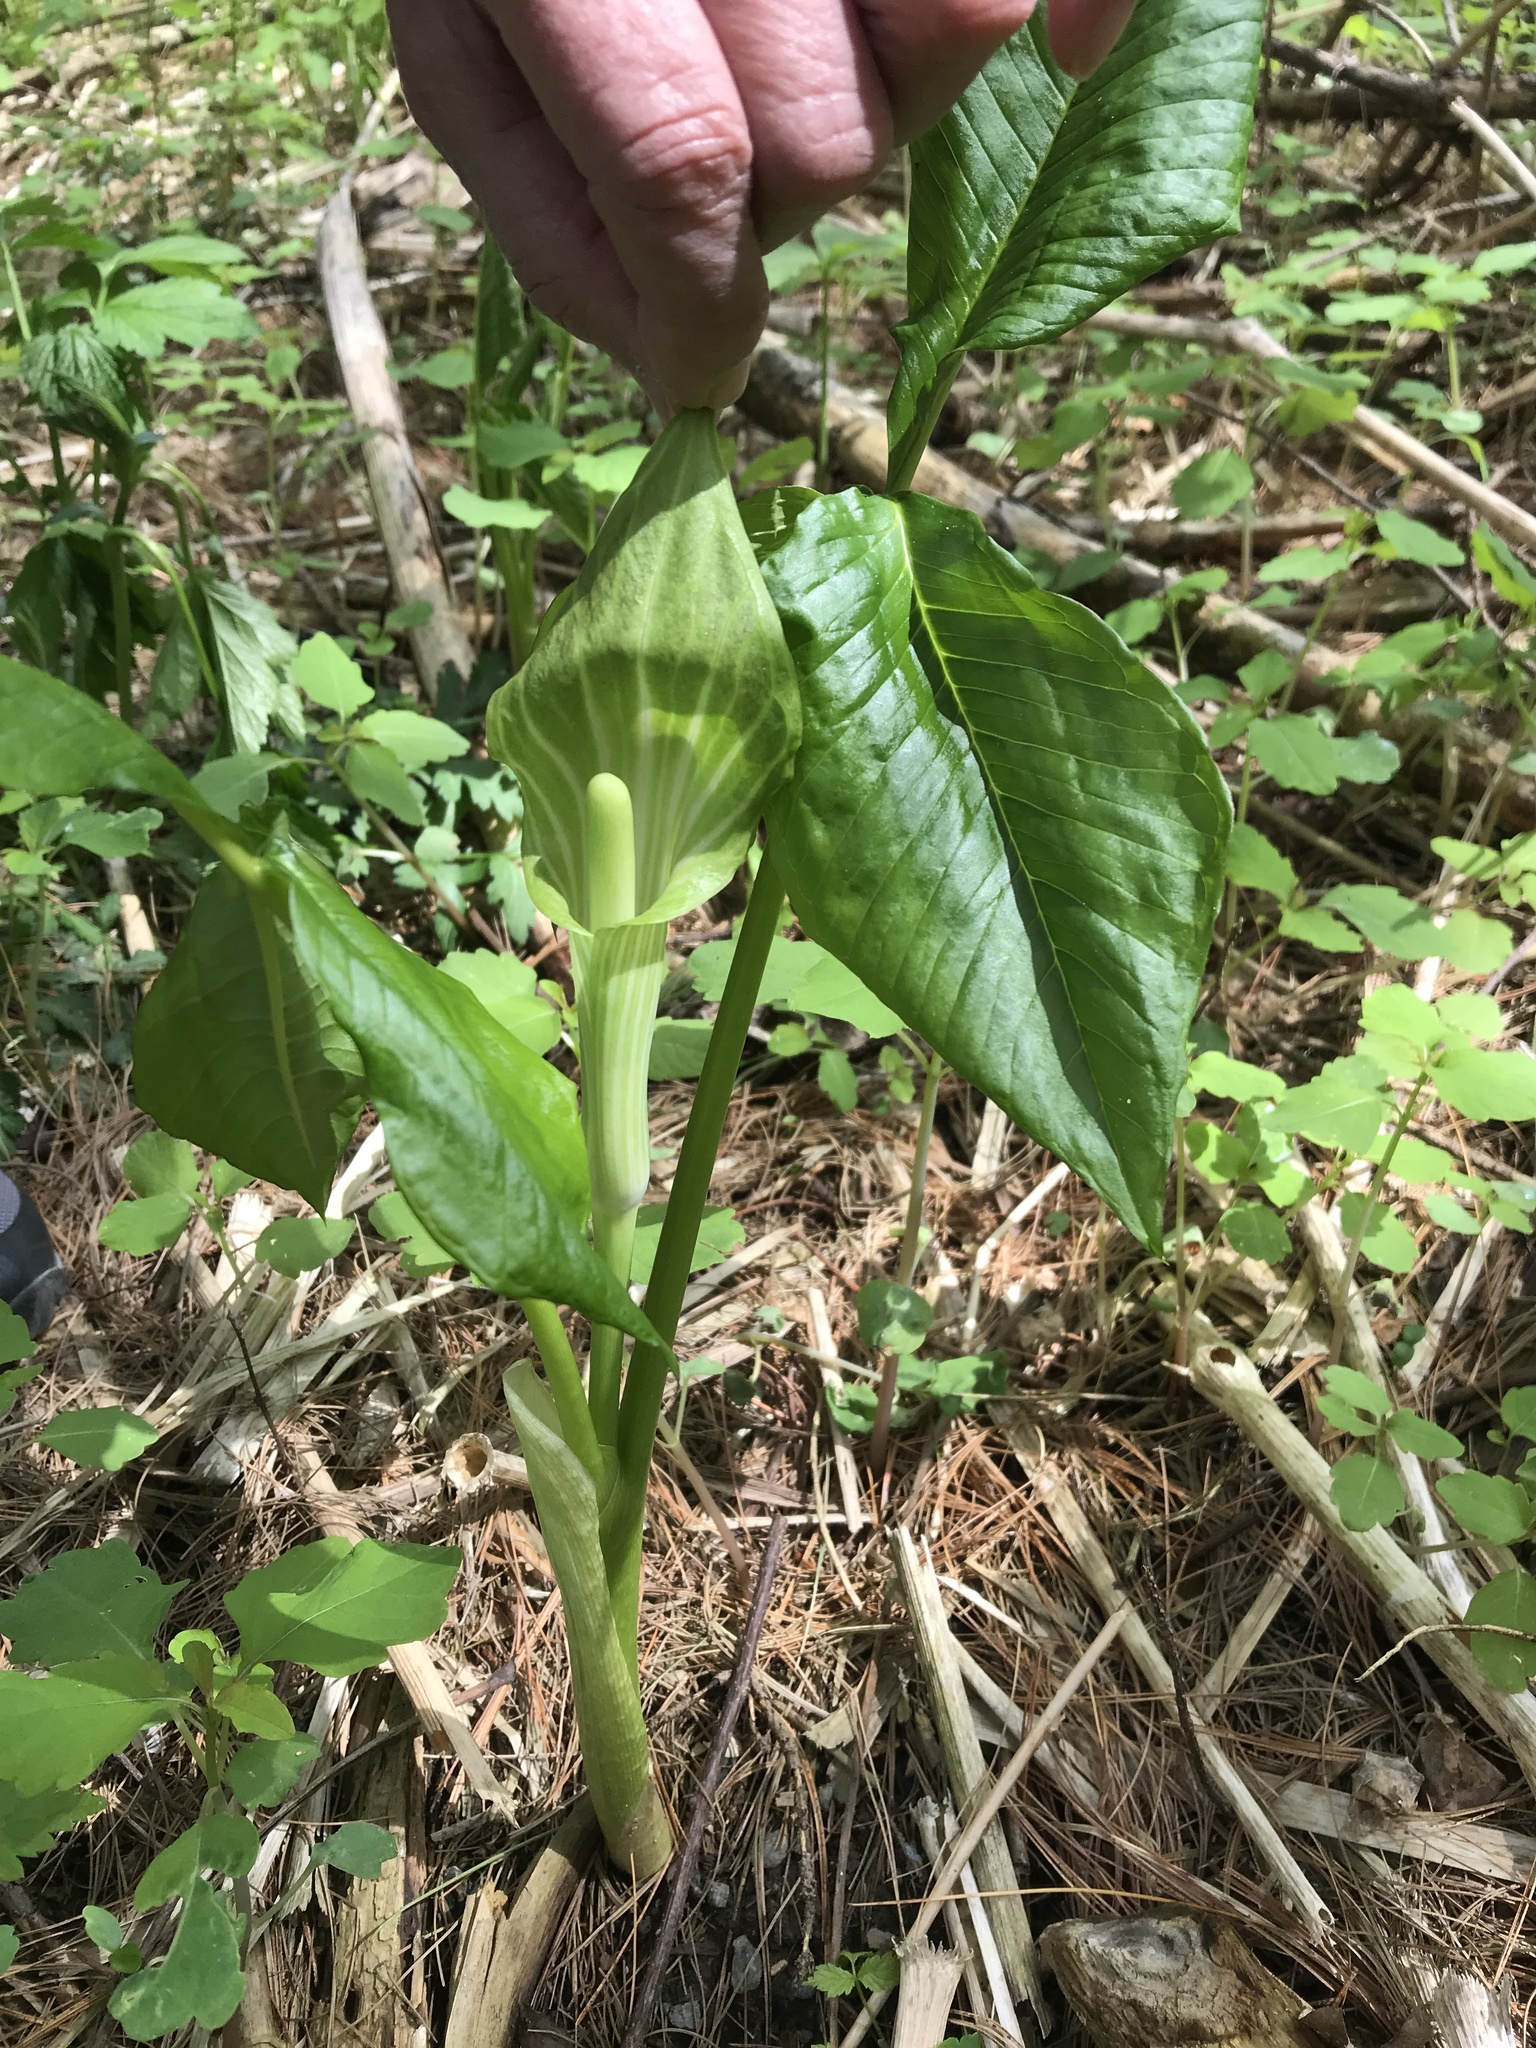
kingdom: Plantae
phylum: Tracheophyta
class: Liliopsida
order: Alismatales
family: Araceae
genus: Arisaema
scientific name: Arisaema triphyllum
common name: Jack-in-the-pulpit
